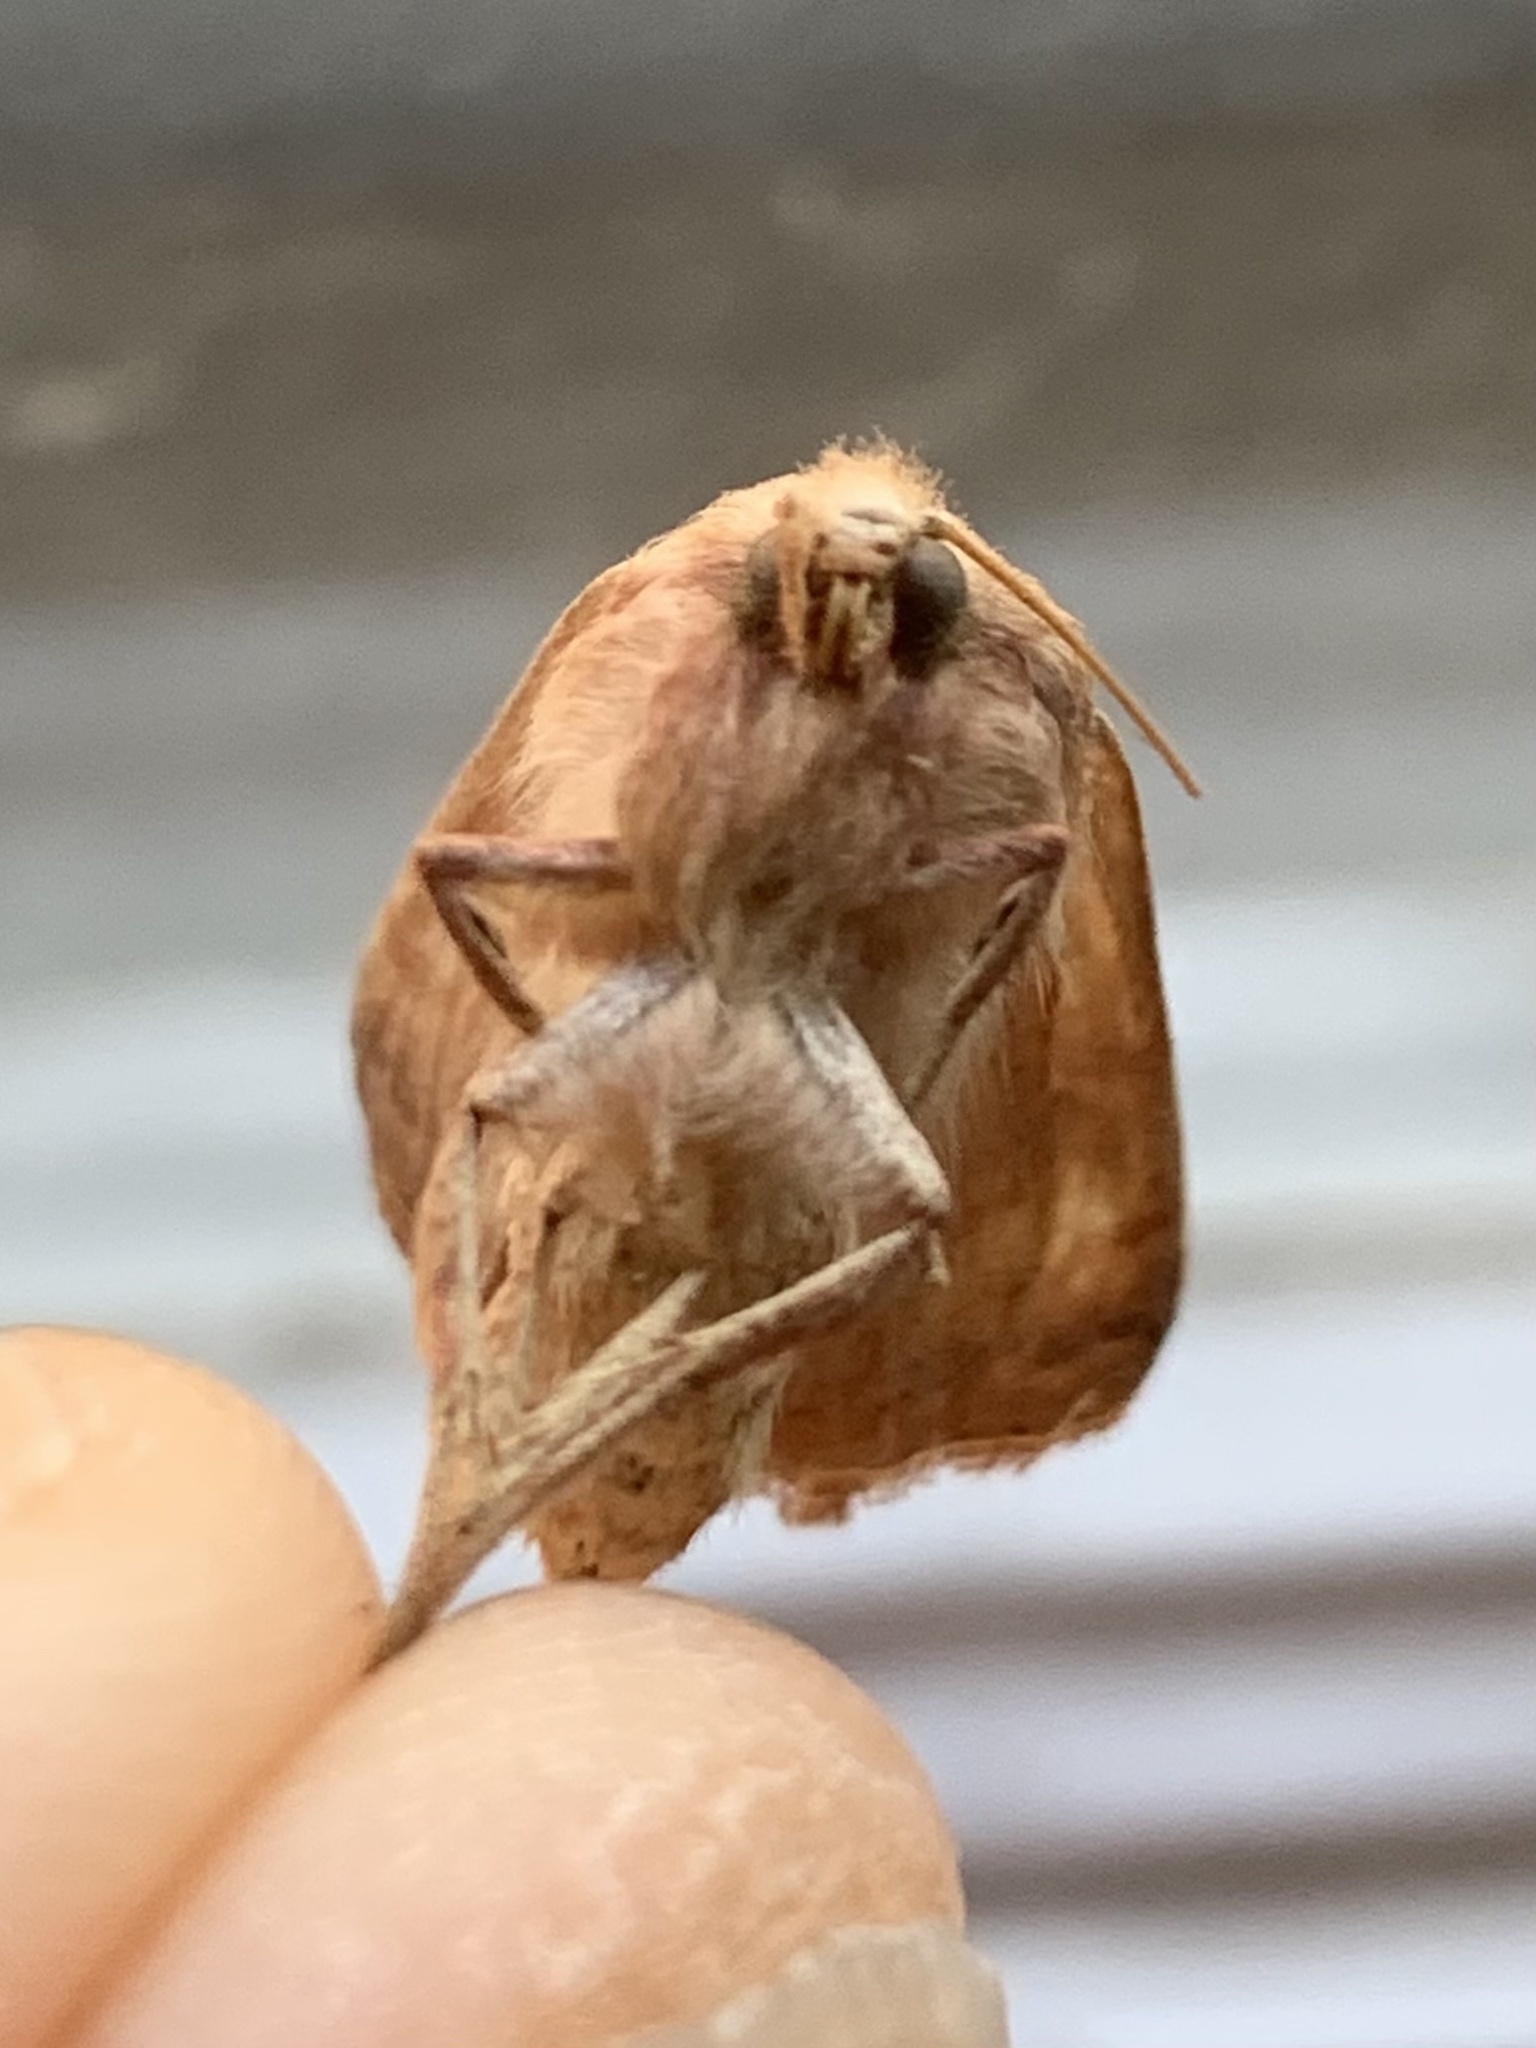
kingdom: Animalia
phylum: Arthropoda
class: Insecta
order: Lepidoptera
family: Noctuidae
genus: Agrochola
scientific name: Agrochola bicolorago
